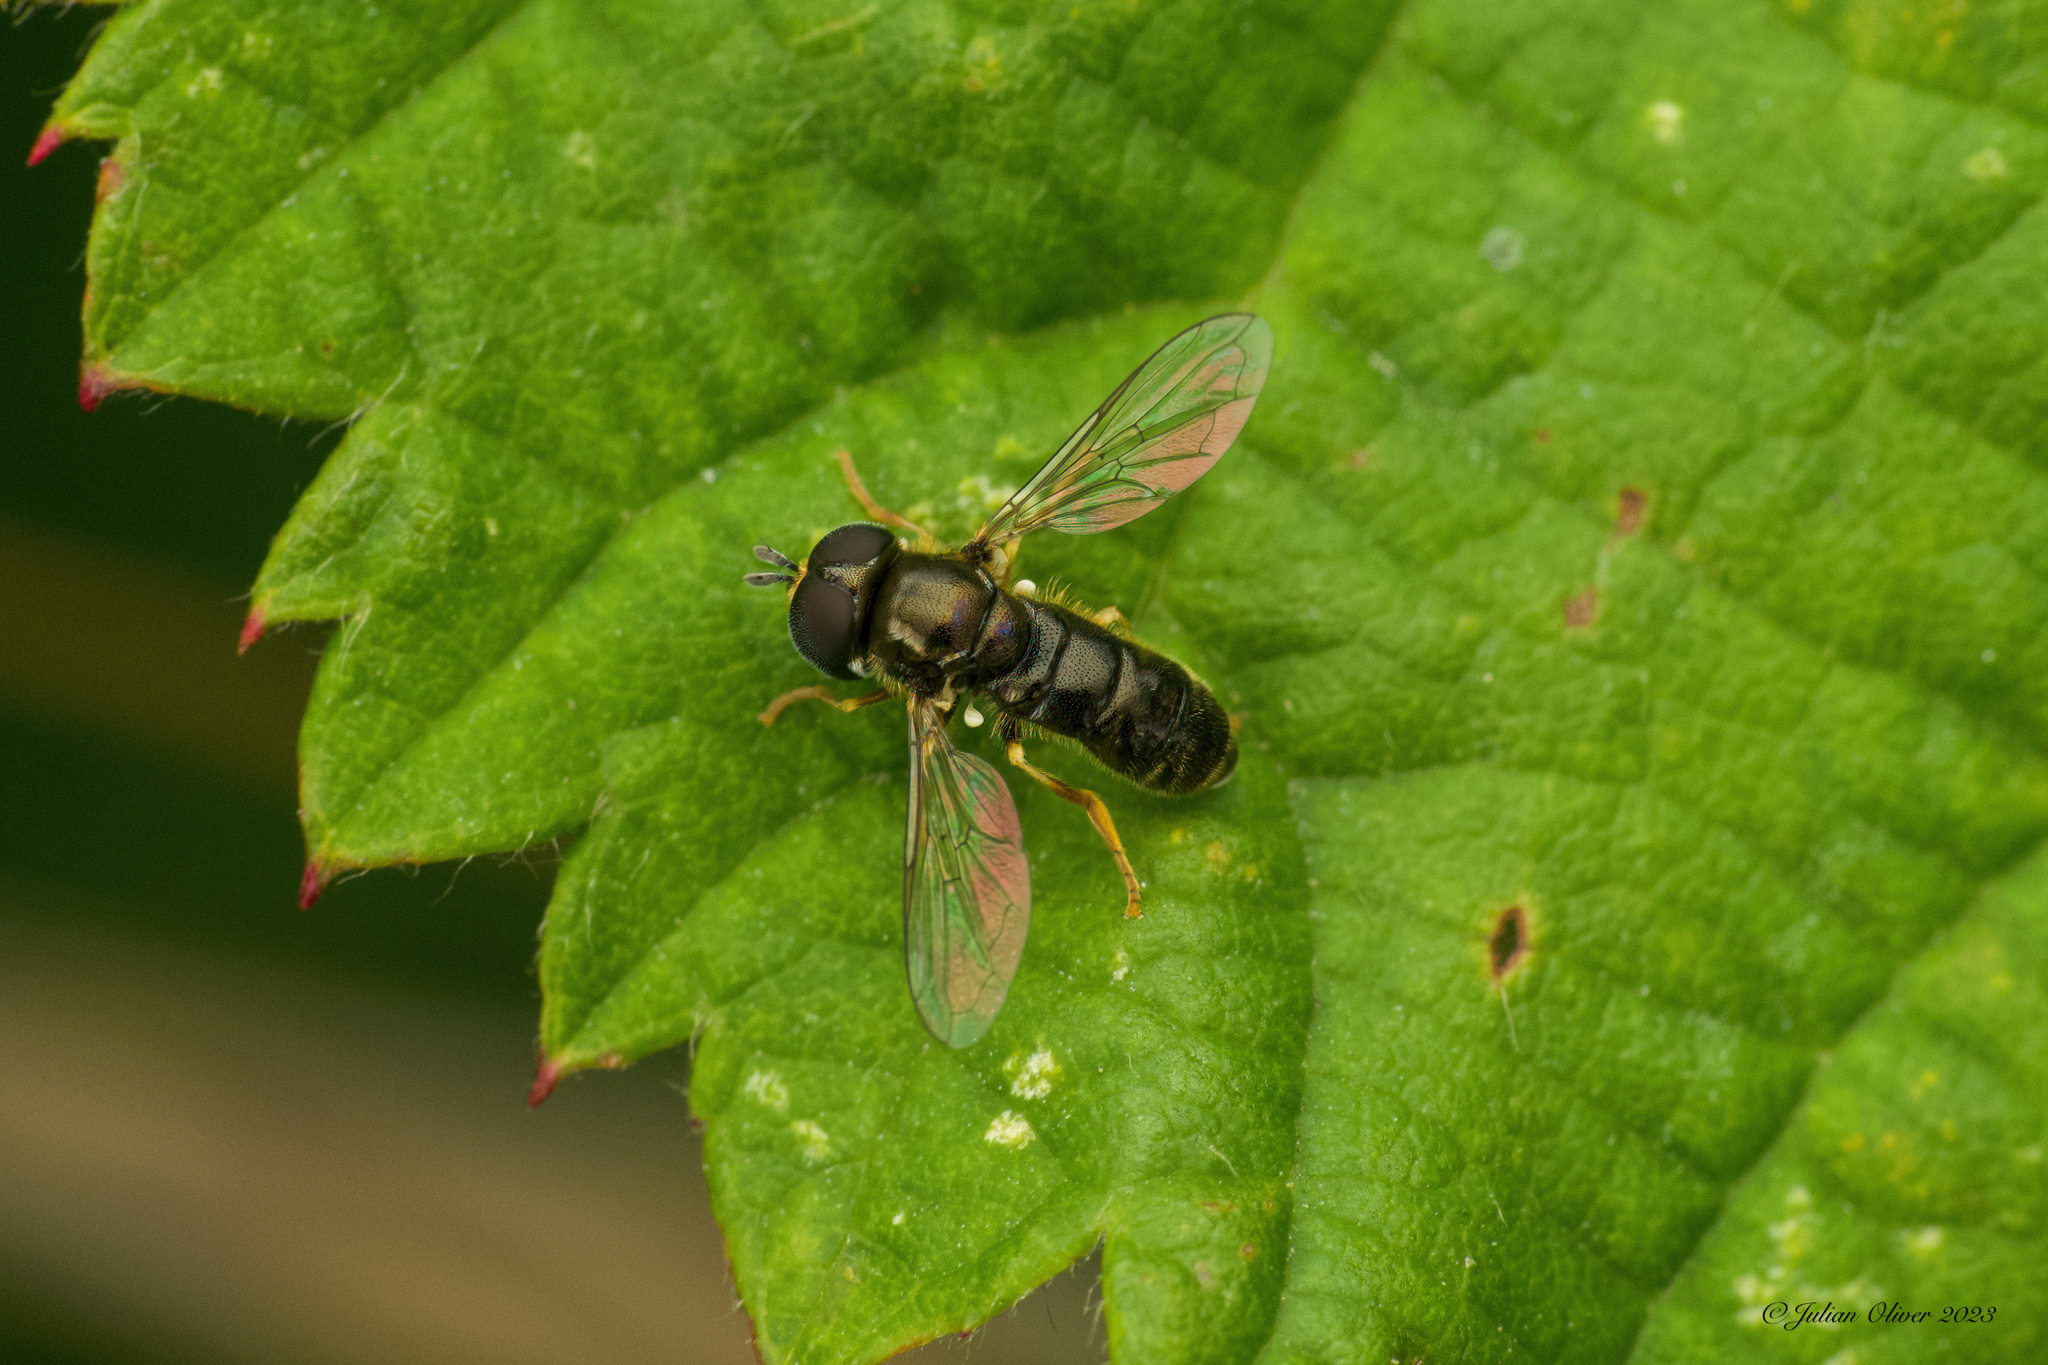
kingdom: Animalia
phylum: Arthropoda
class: Insecta
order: Diptera
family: Syrphidae
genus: Paragus
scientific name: Paragus
